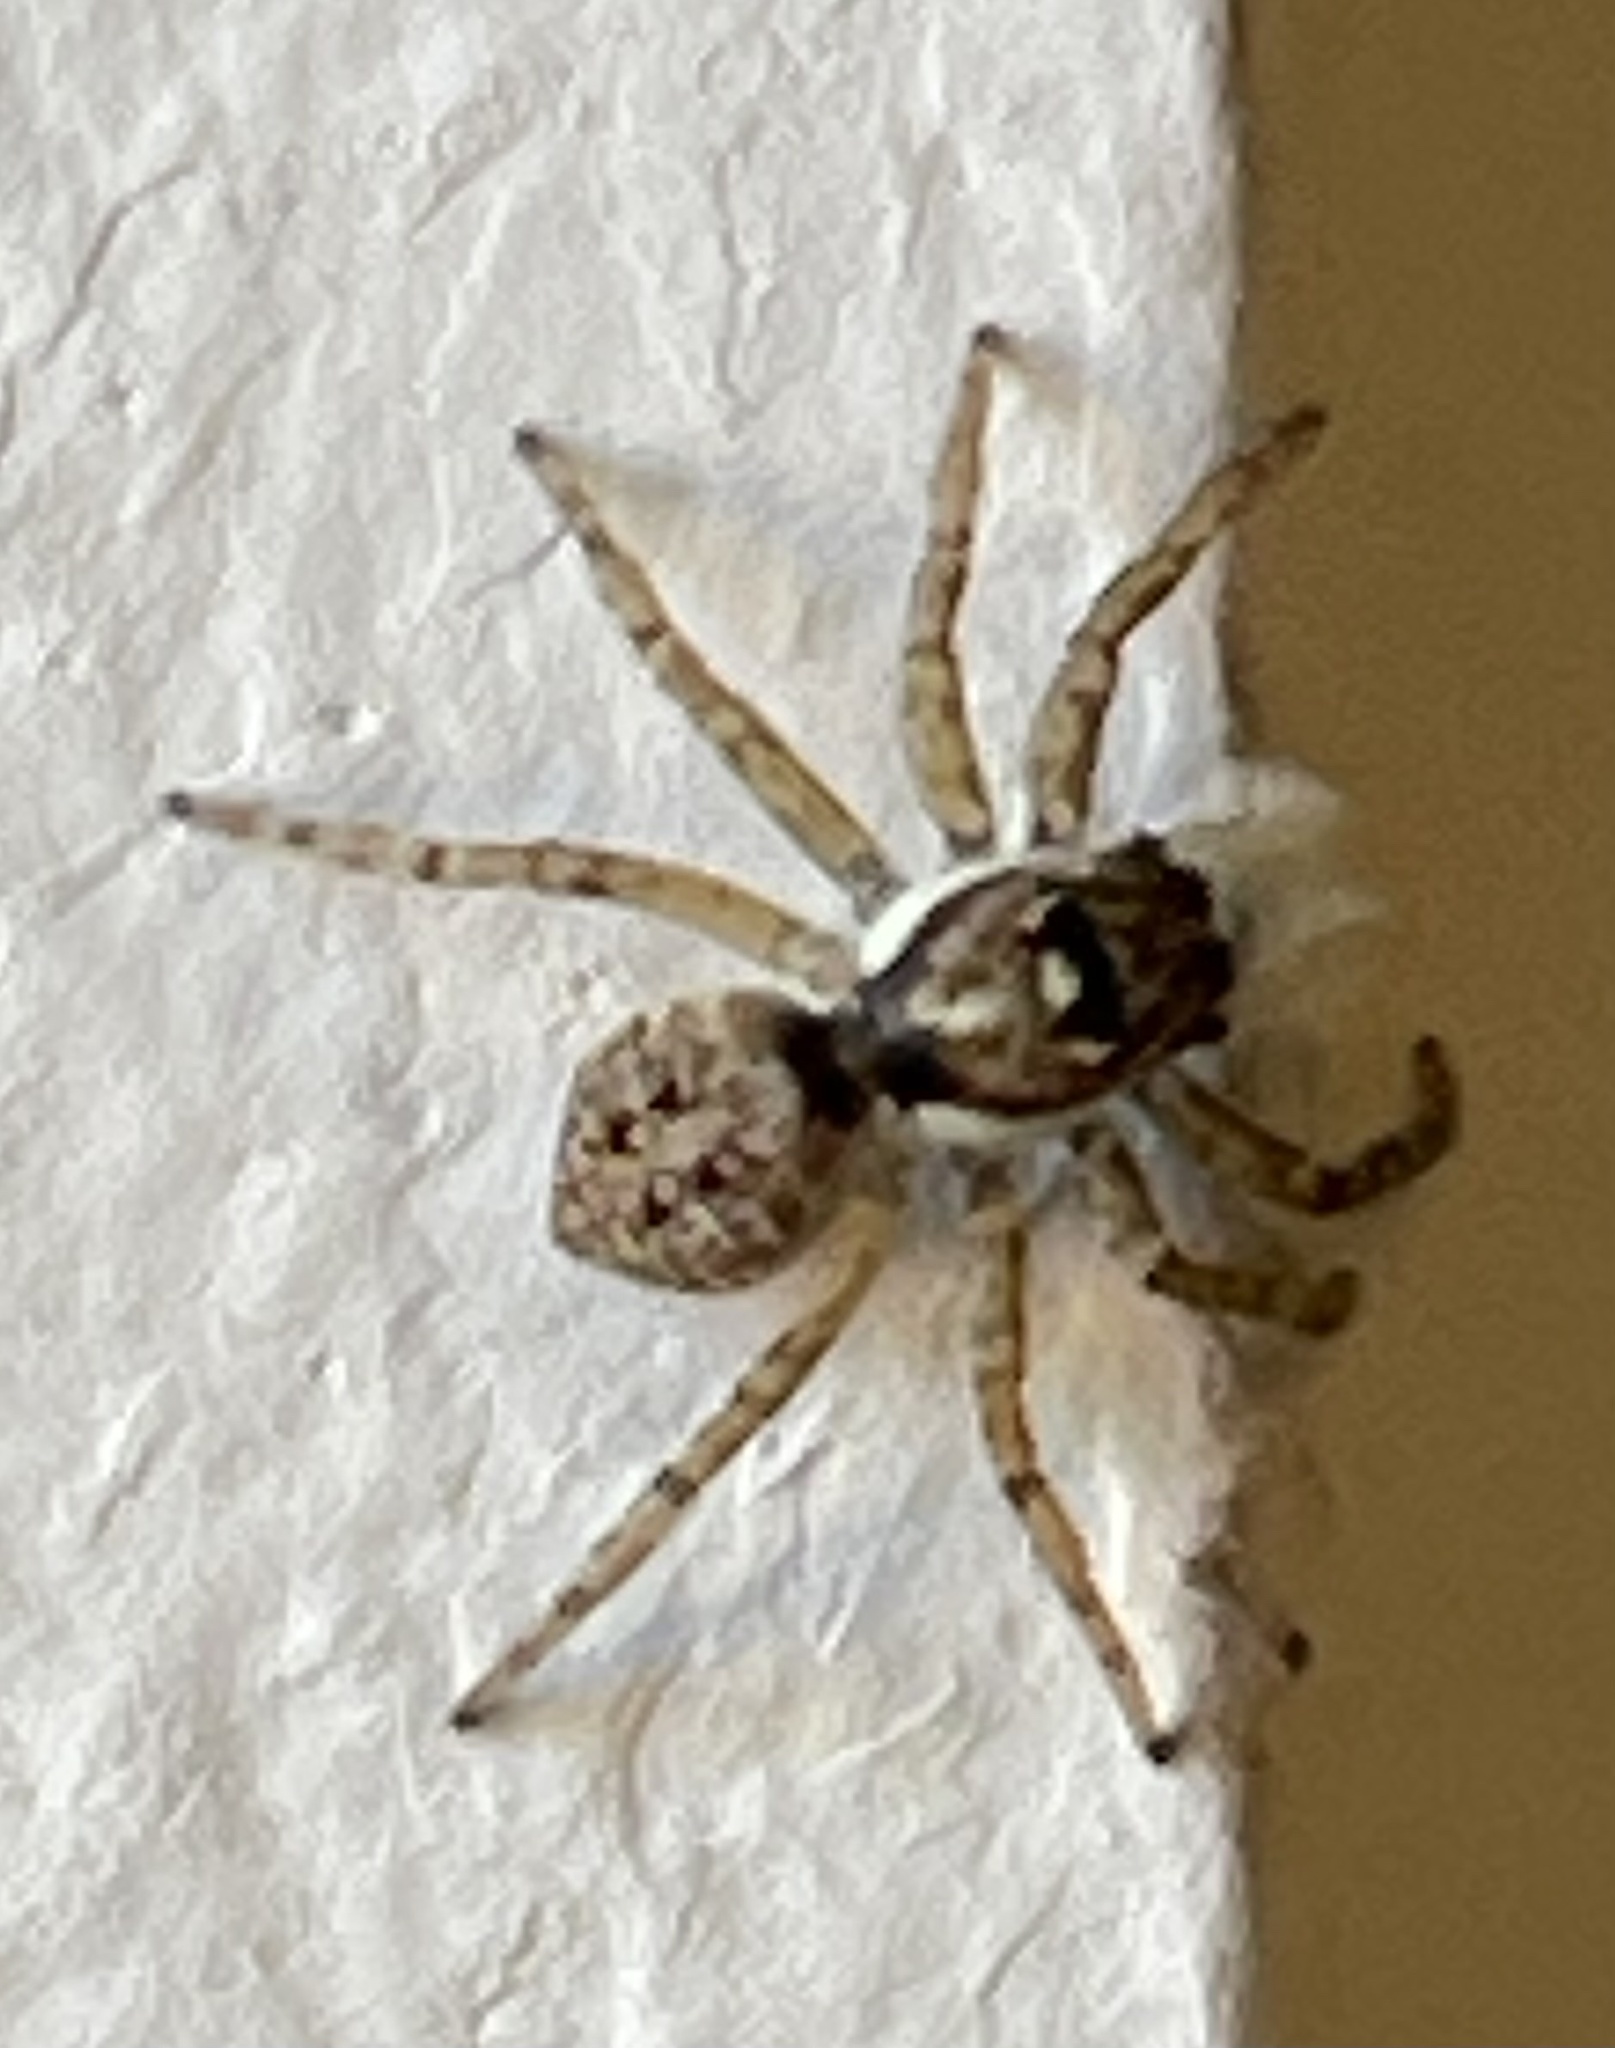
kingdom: Animalia
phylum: Arthropoda
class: Arachnida
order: Araneae
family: Salticidae
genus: Menemerus
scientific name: Menemerus semilimbatus
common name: Jumping spider
